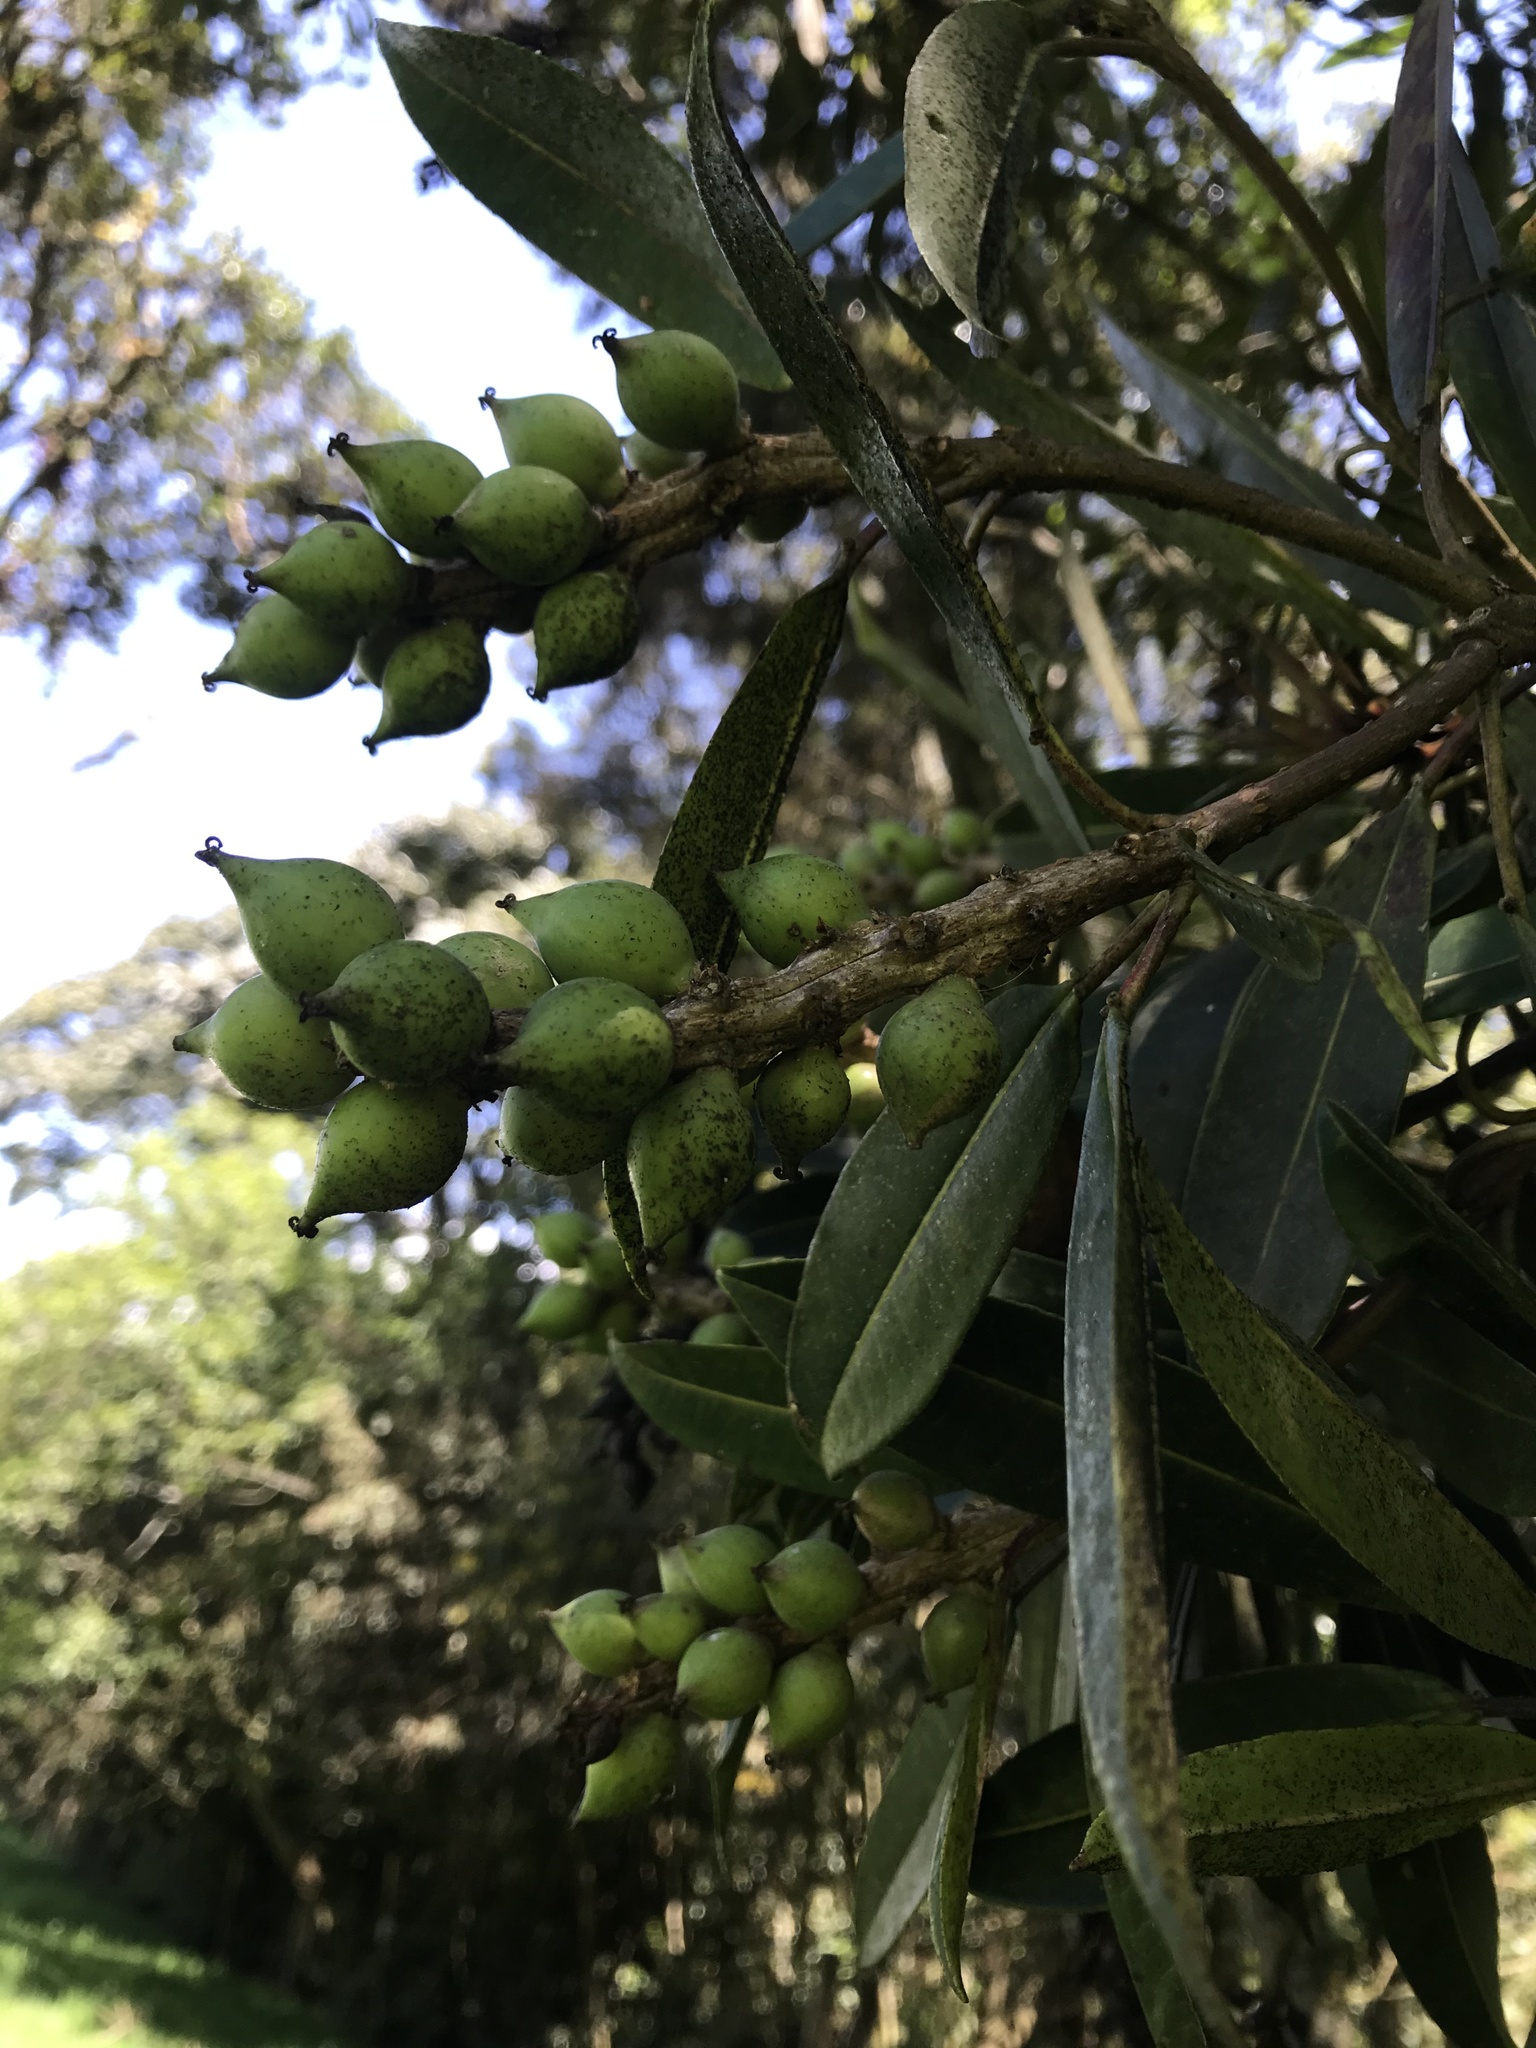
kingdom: Plantae
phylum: Tracheophyta
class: Magnoliopsida
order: Malpighiales
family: Euphorbiaceae
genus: Sapium
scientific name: Sapium stylare
